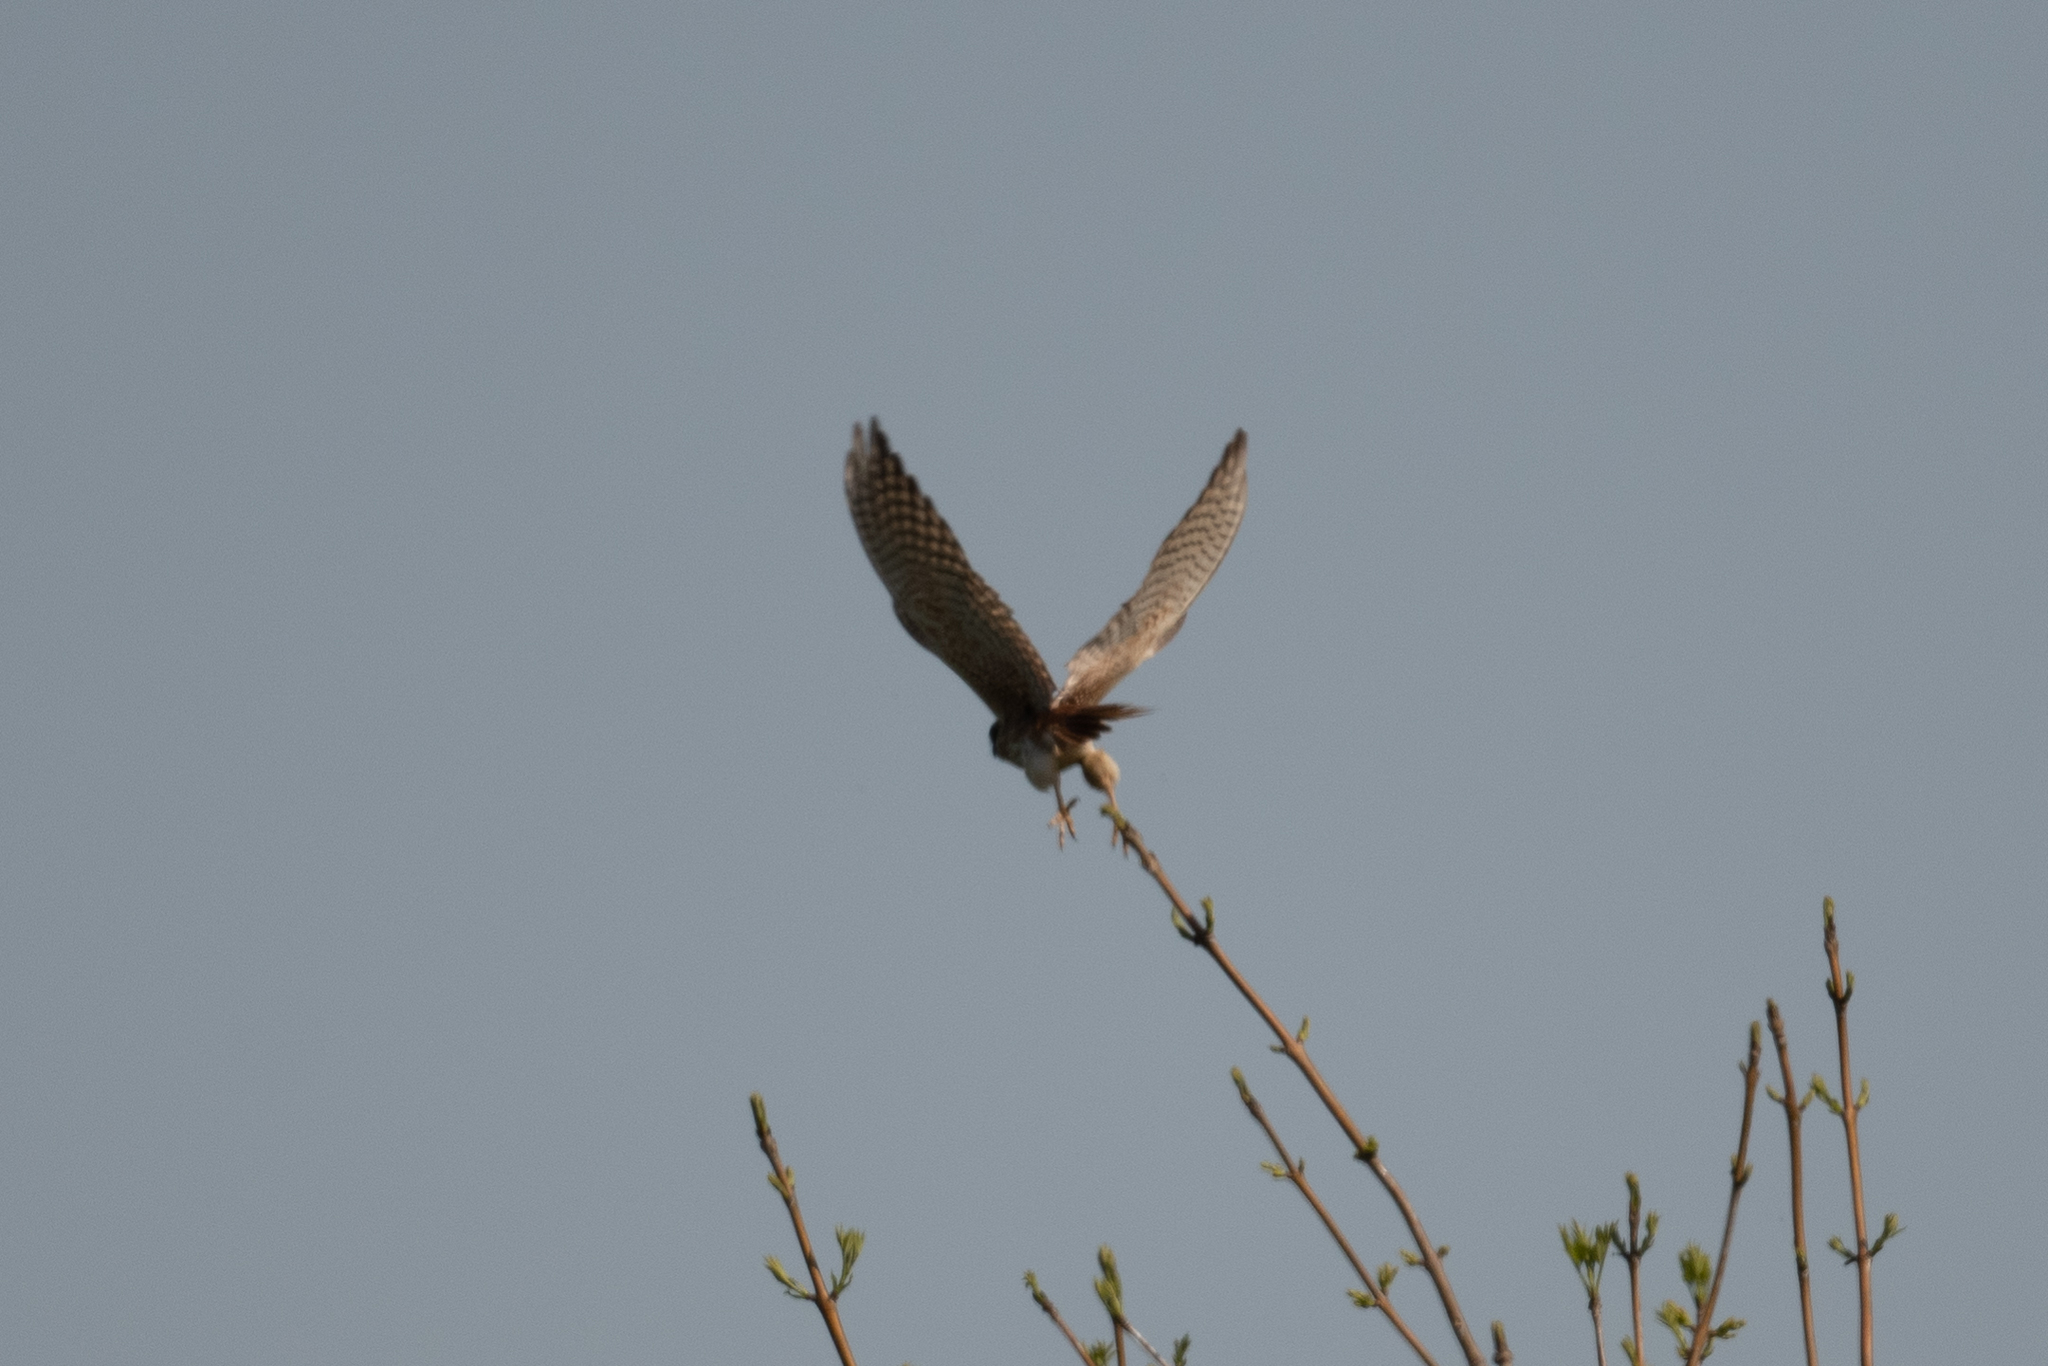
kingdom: Animalia
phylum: Chordata
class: Aves
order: Falconiformes
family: Falconidae
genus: Falco
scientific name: Falco sparverius
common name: American kestrel
